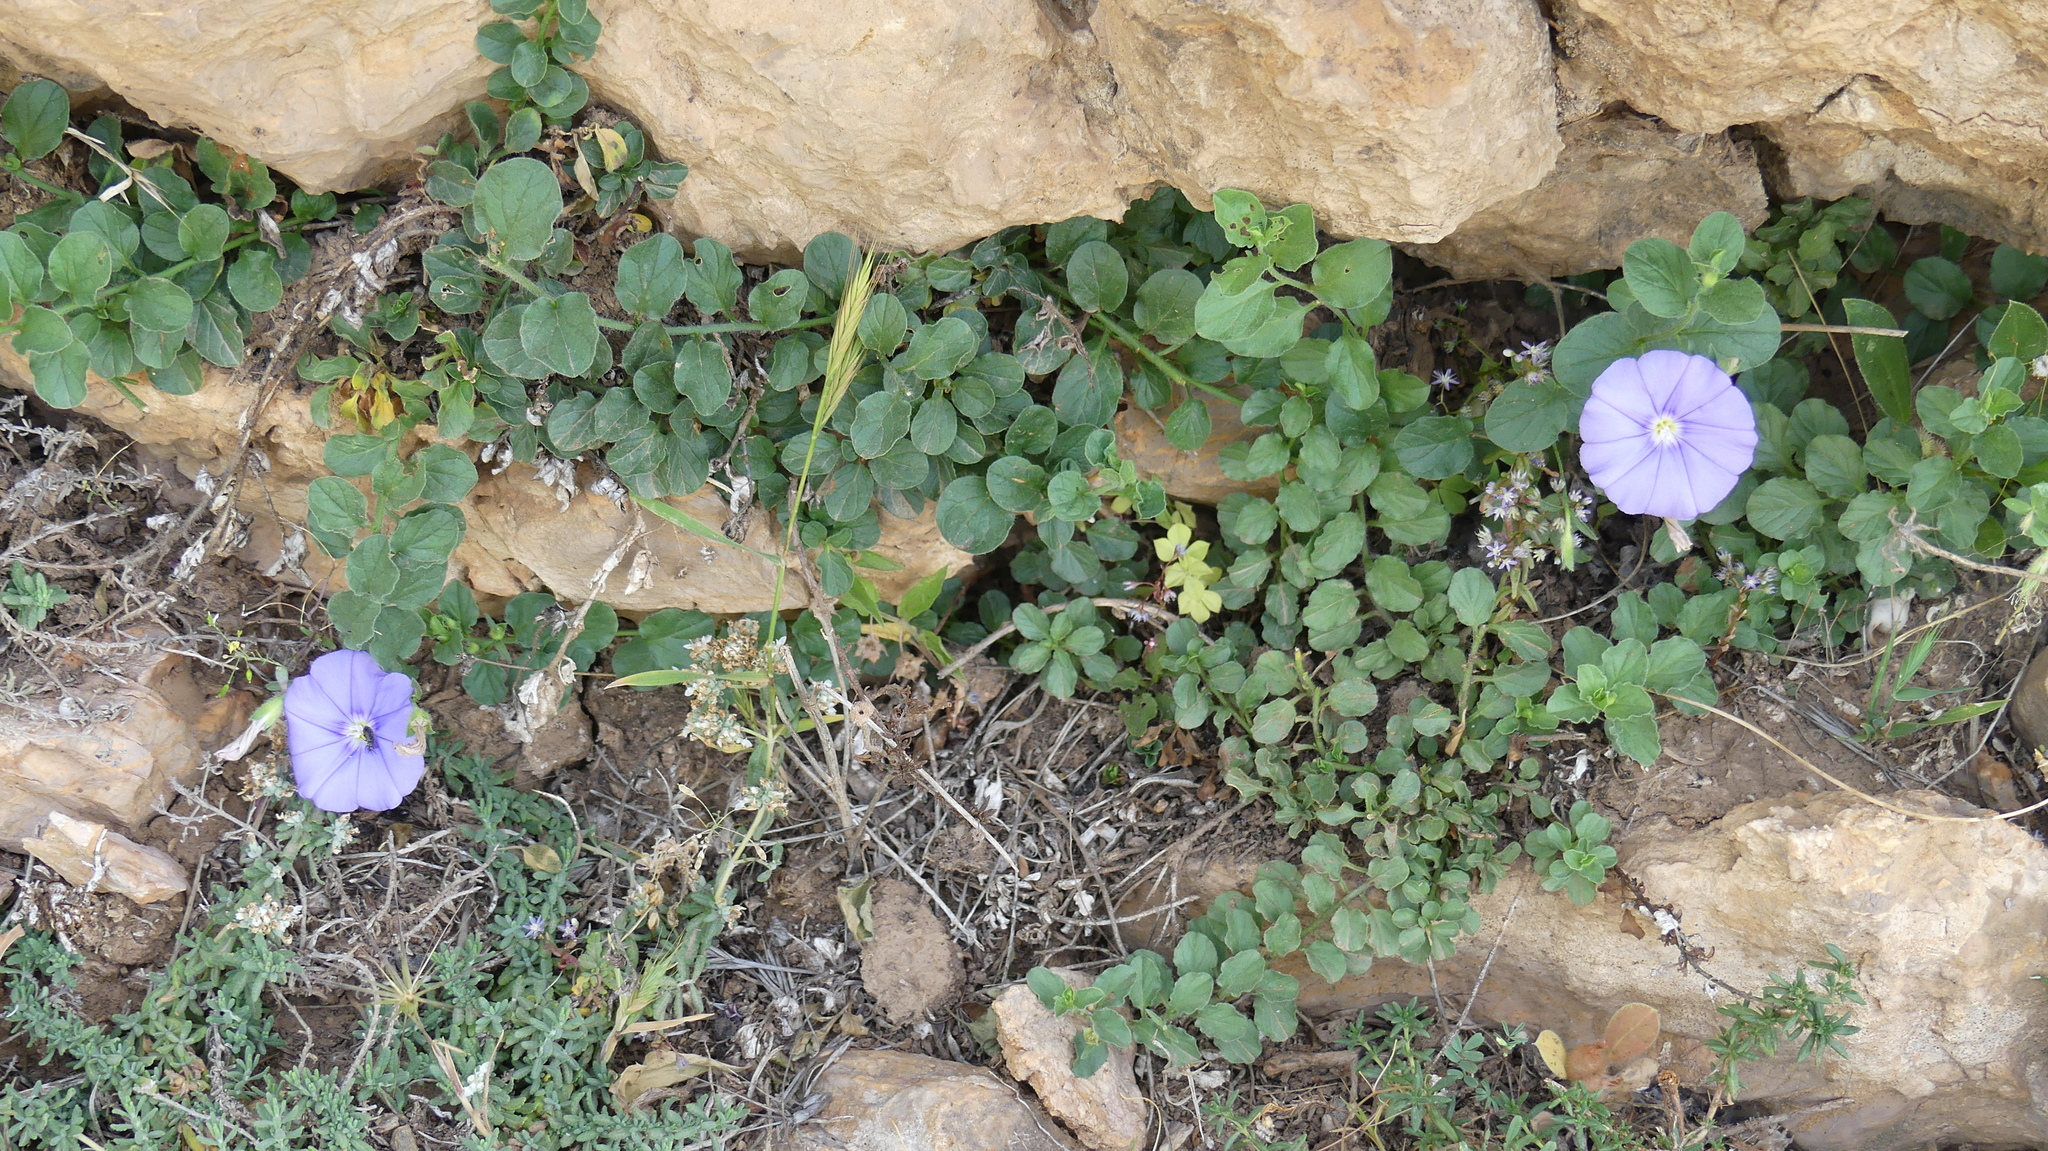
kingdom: Plantae
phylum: Tracheophyta
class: Magnoliopsida
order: Solanales
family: Convolvulaceae
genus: Convolvulus
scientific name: Convolvulus sabatius
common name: Ground blue-convolvulus
